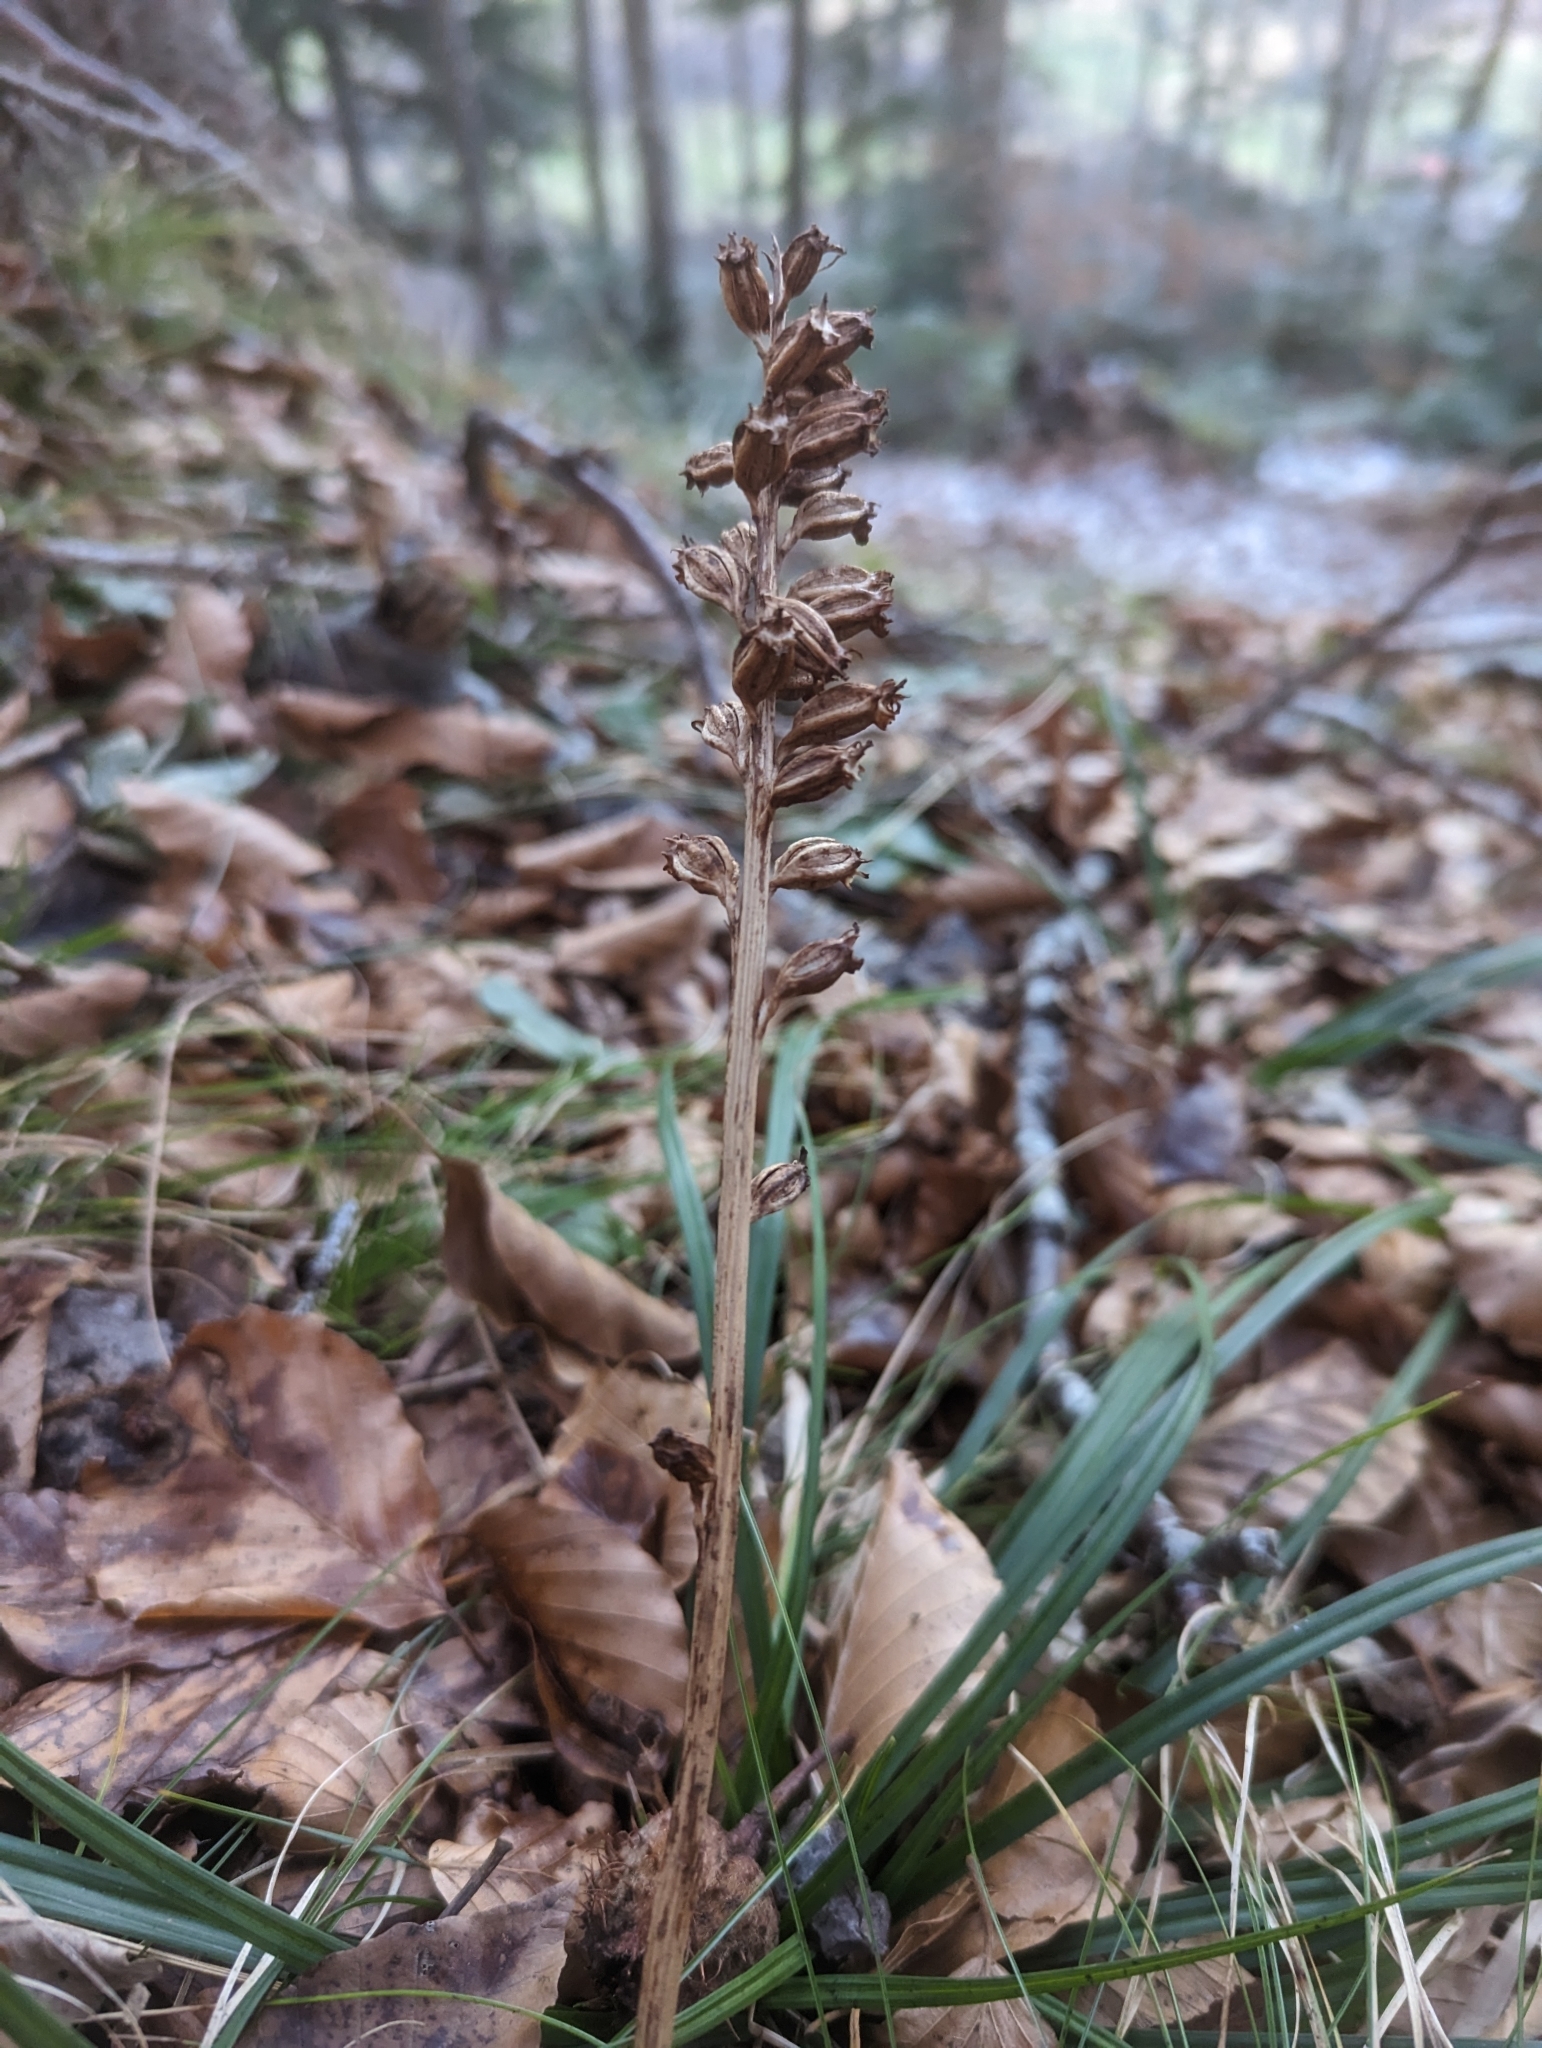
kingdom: Plantae
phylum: Tracheophyta
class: Liliopsida
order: Asparagales
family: Orchidaceae
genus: Neottia
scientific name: Neottia nidus-avis
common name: Bird's-nest orchid
